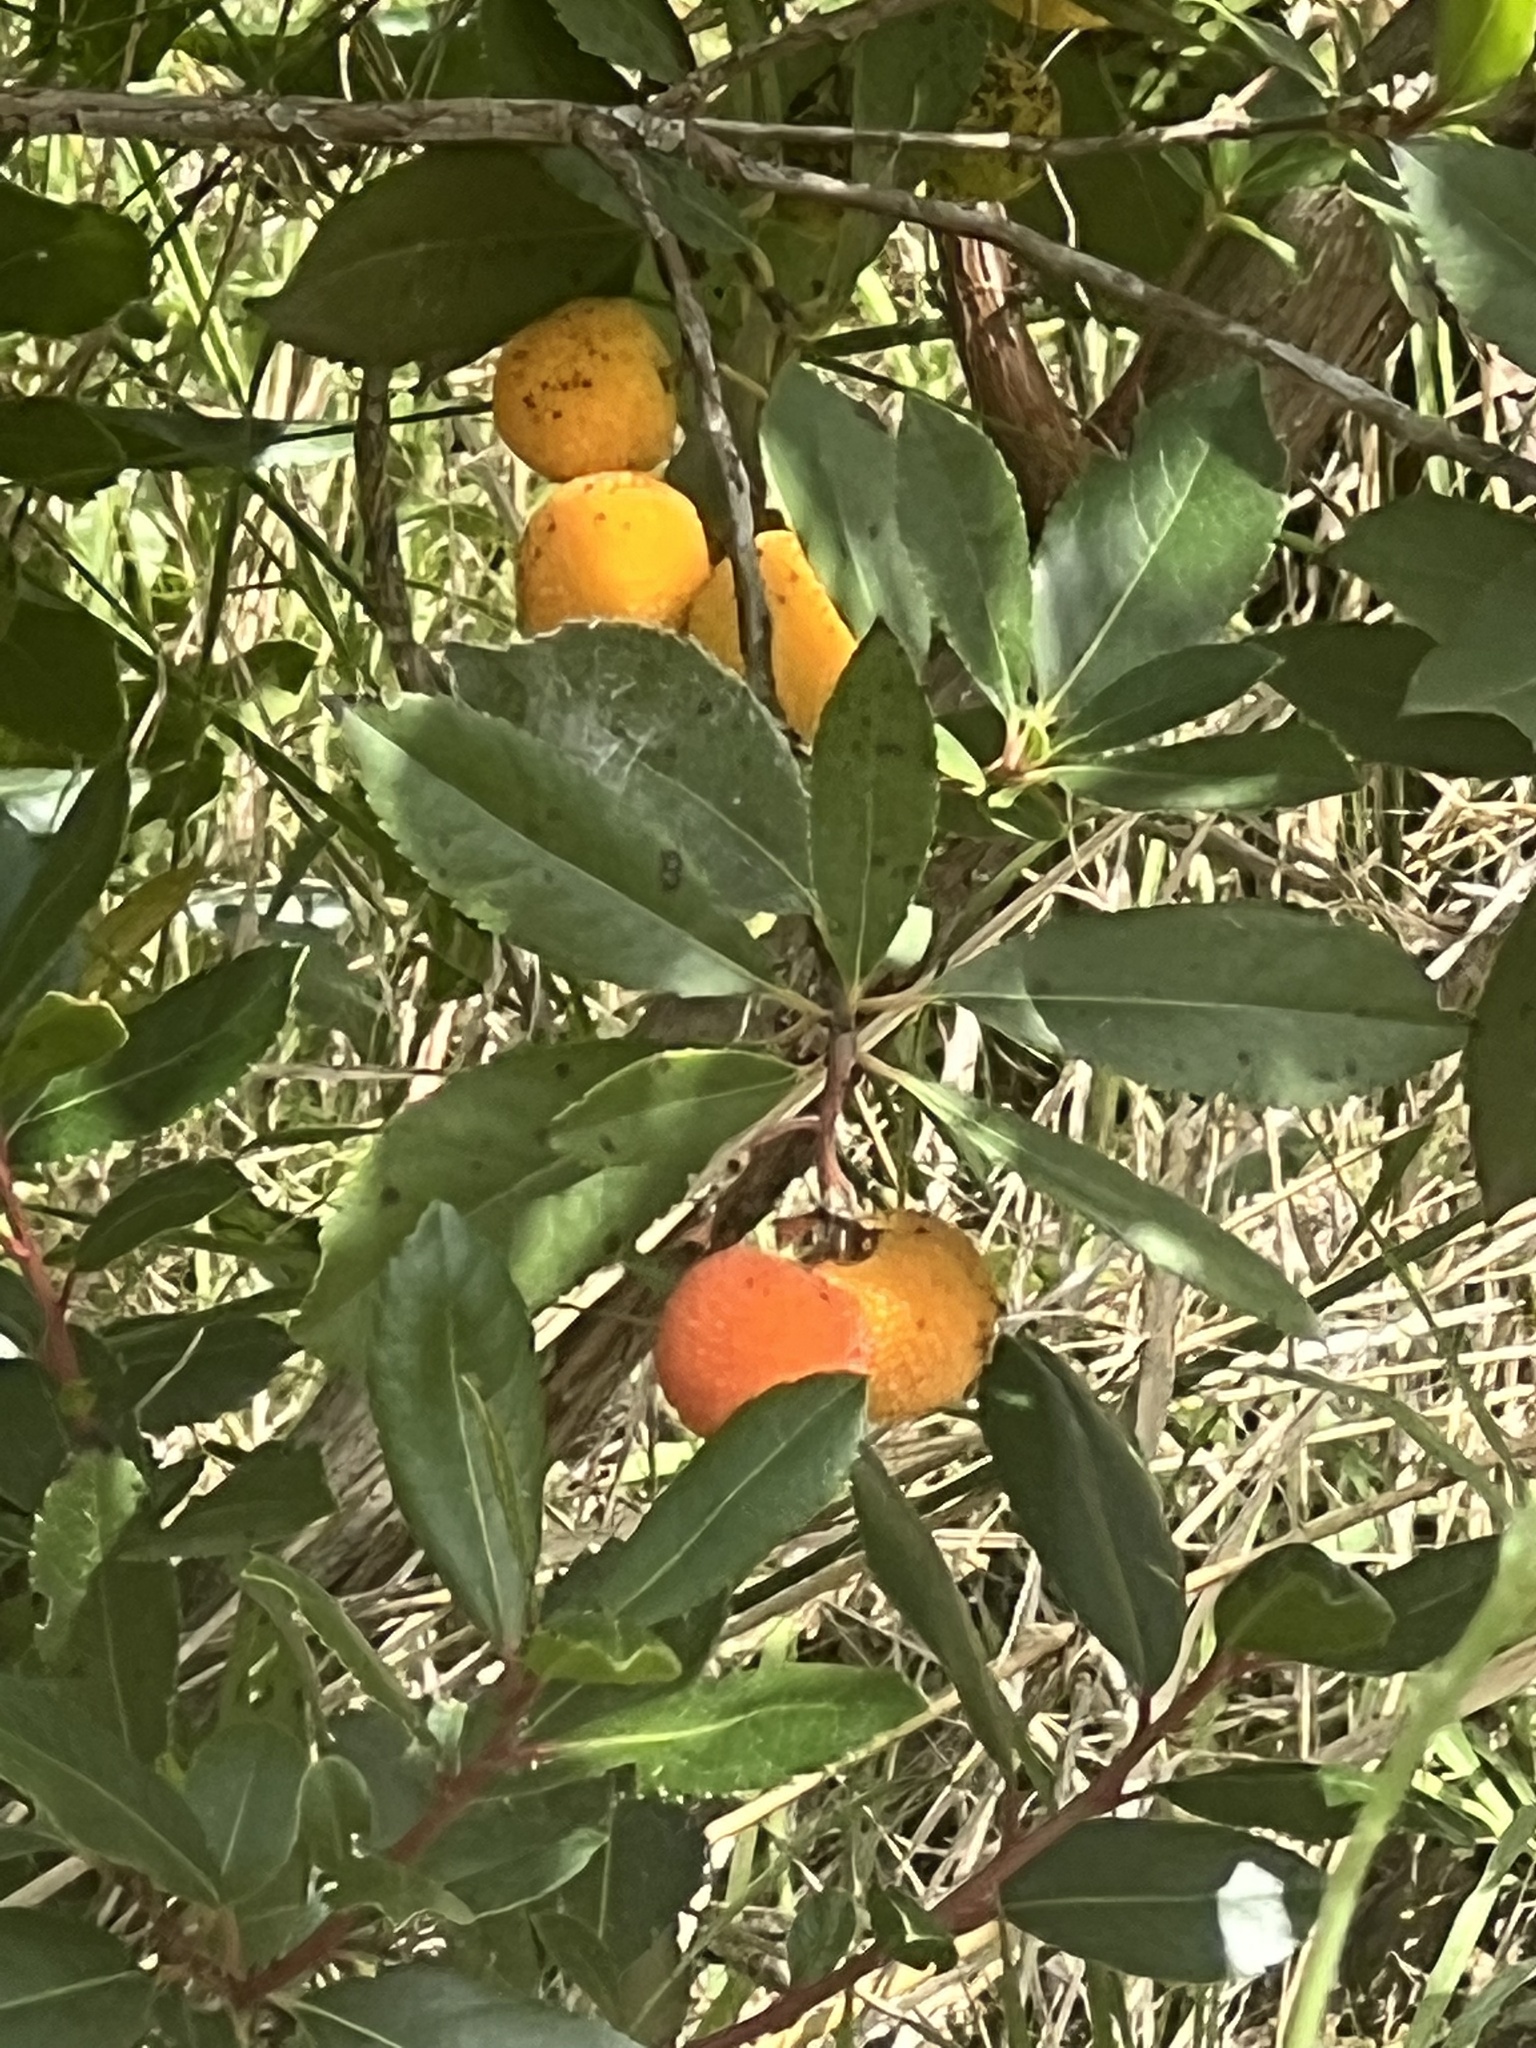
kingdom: Plantae
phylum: Tracheophyta
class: Magnoliopsida
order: Ericales
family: Ericaceae
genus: Arbutus
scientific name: Arbutus unedo
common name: Strawberry-tree
